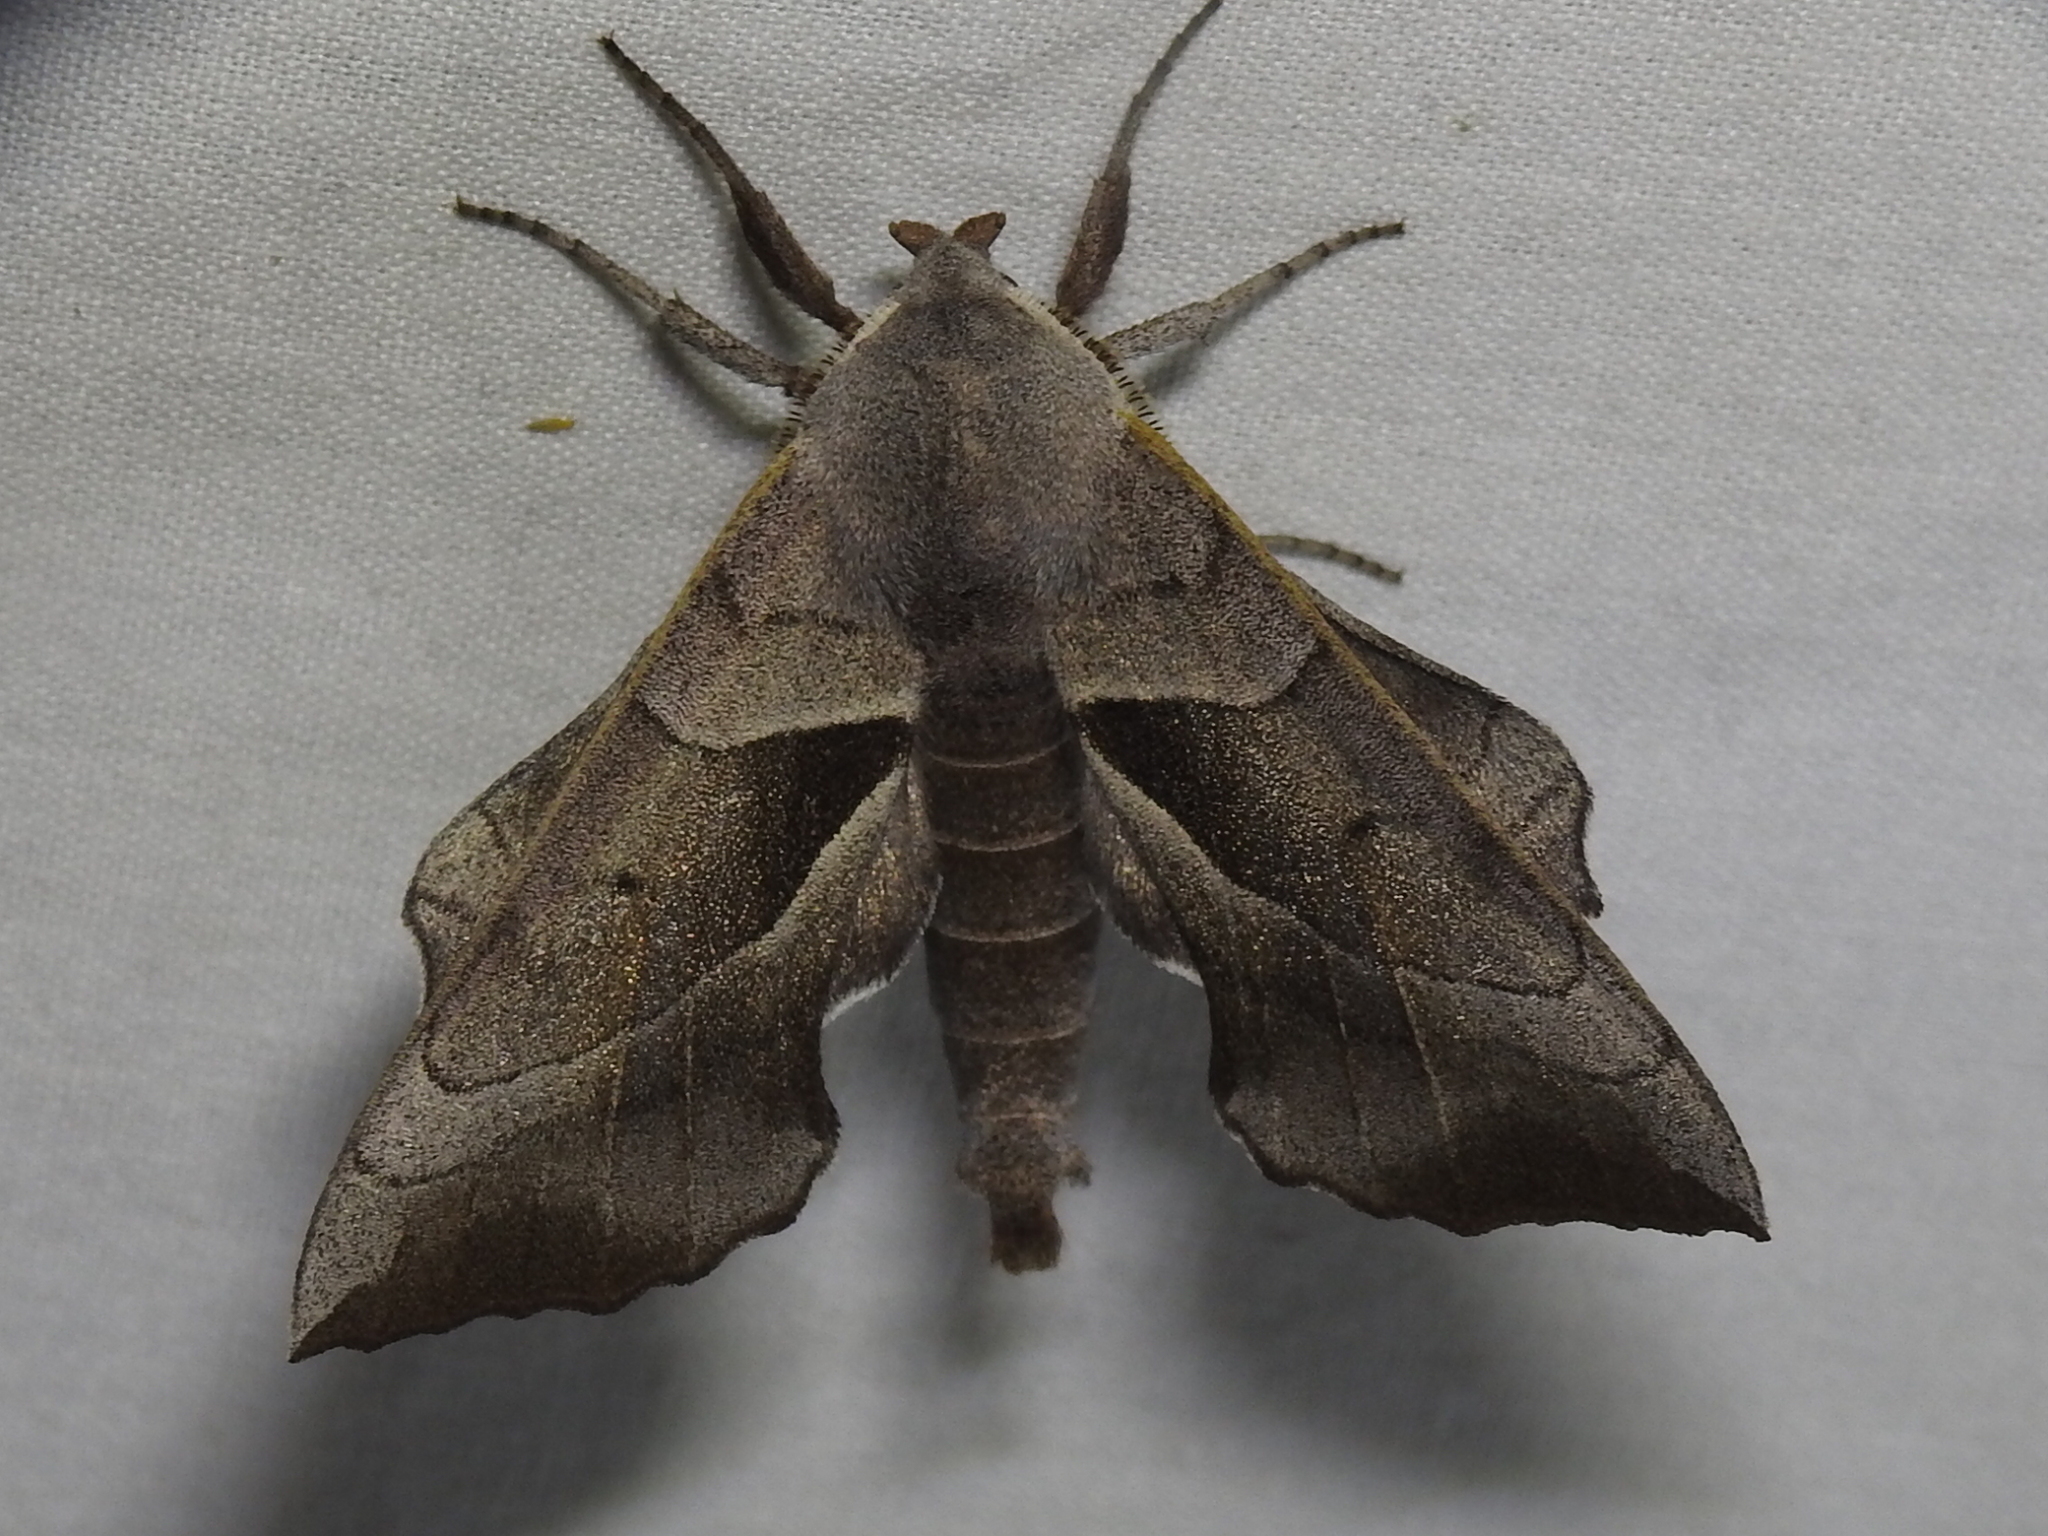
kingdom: Animalia
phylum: Arthropoda
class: Insecta
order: Lepidoptera
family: Sphingidae
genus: Amorpha
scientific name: Amorpha juglandis
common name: Walnut sphinx
